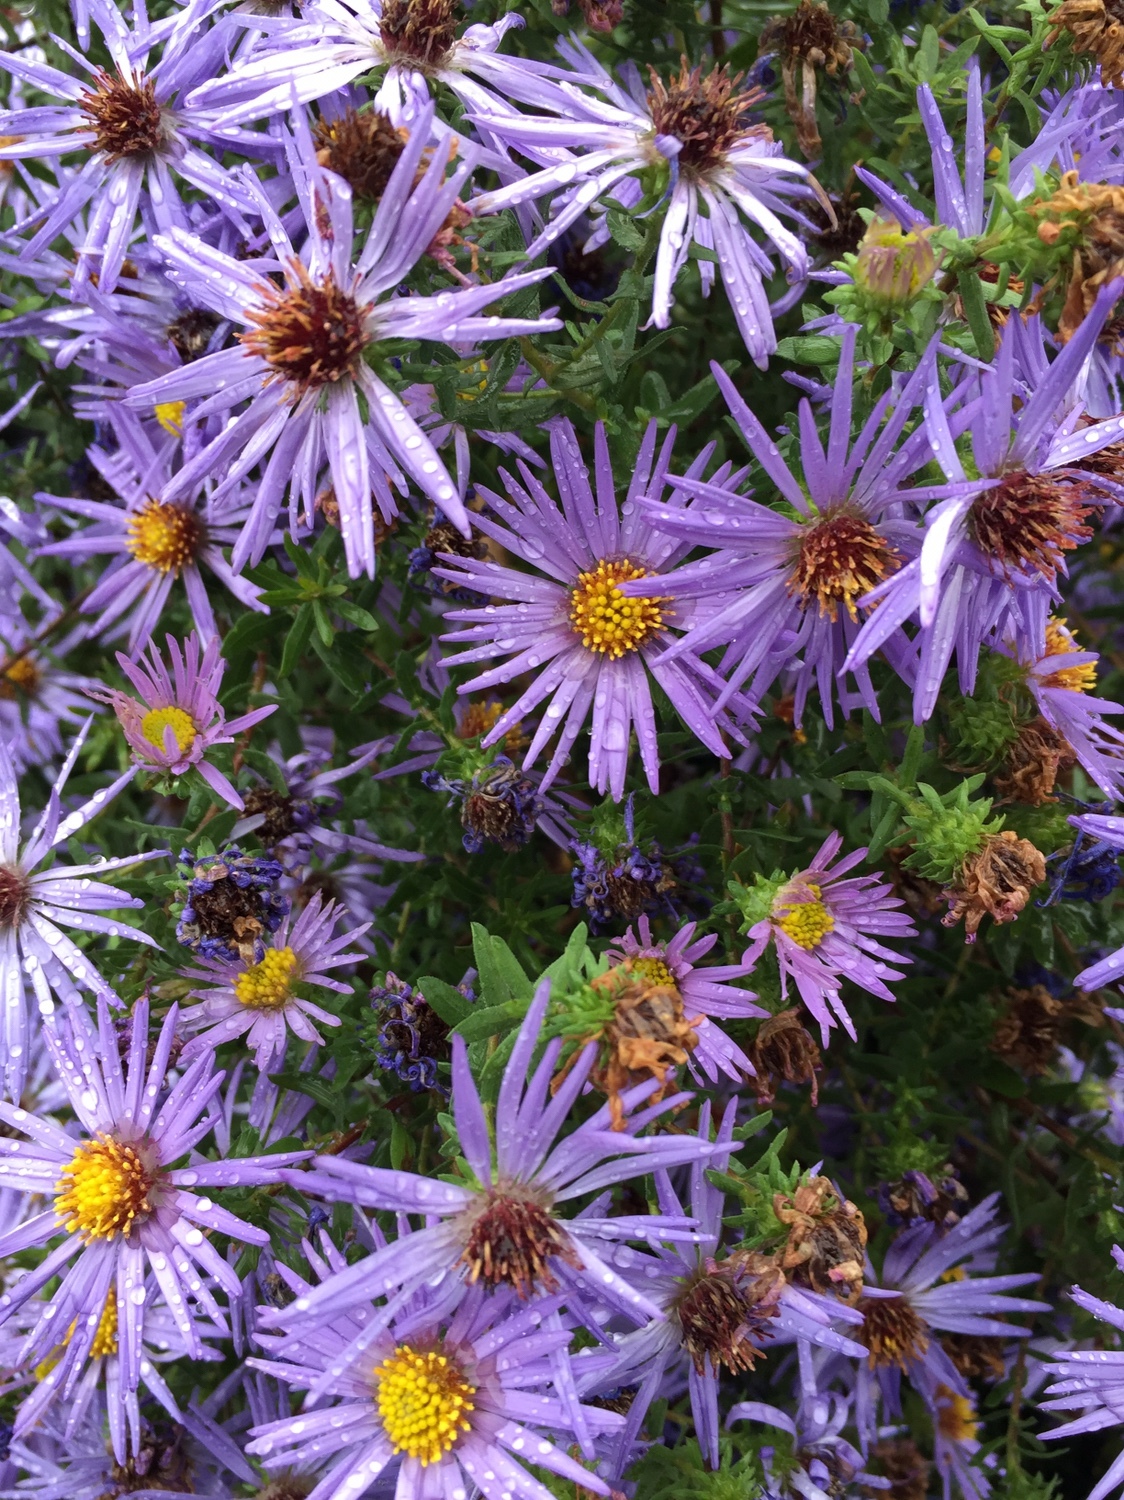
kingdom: Plantae
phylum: Tracheophyta
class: Magnoliopsida
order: Asterales
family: Asteraceae
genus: Symphyotrichum
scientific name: Symphyotrichum novae-angliae
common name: Michaelmas daisy
